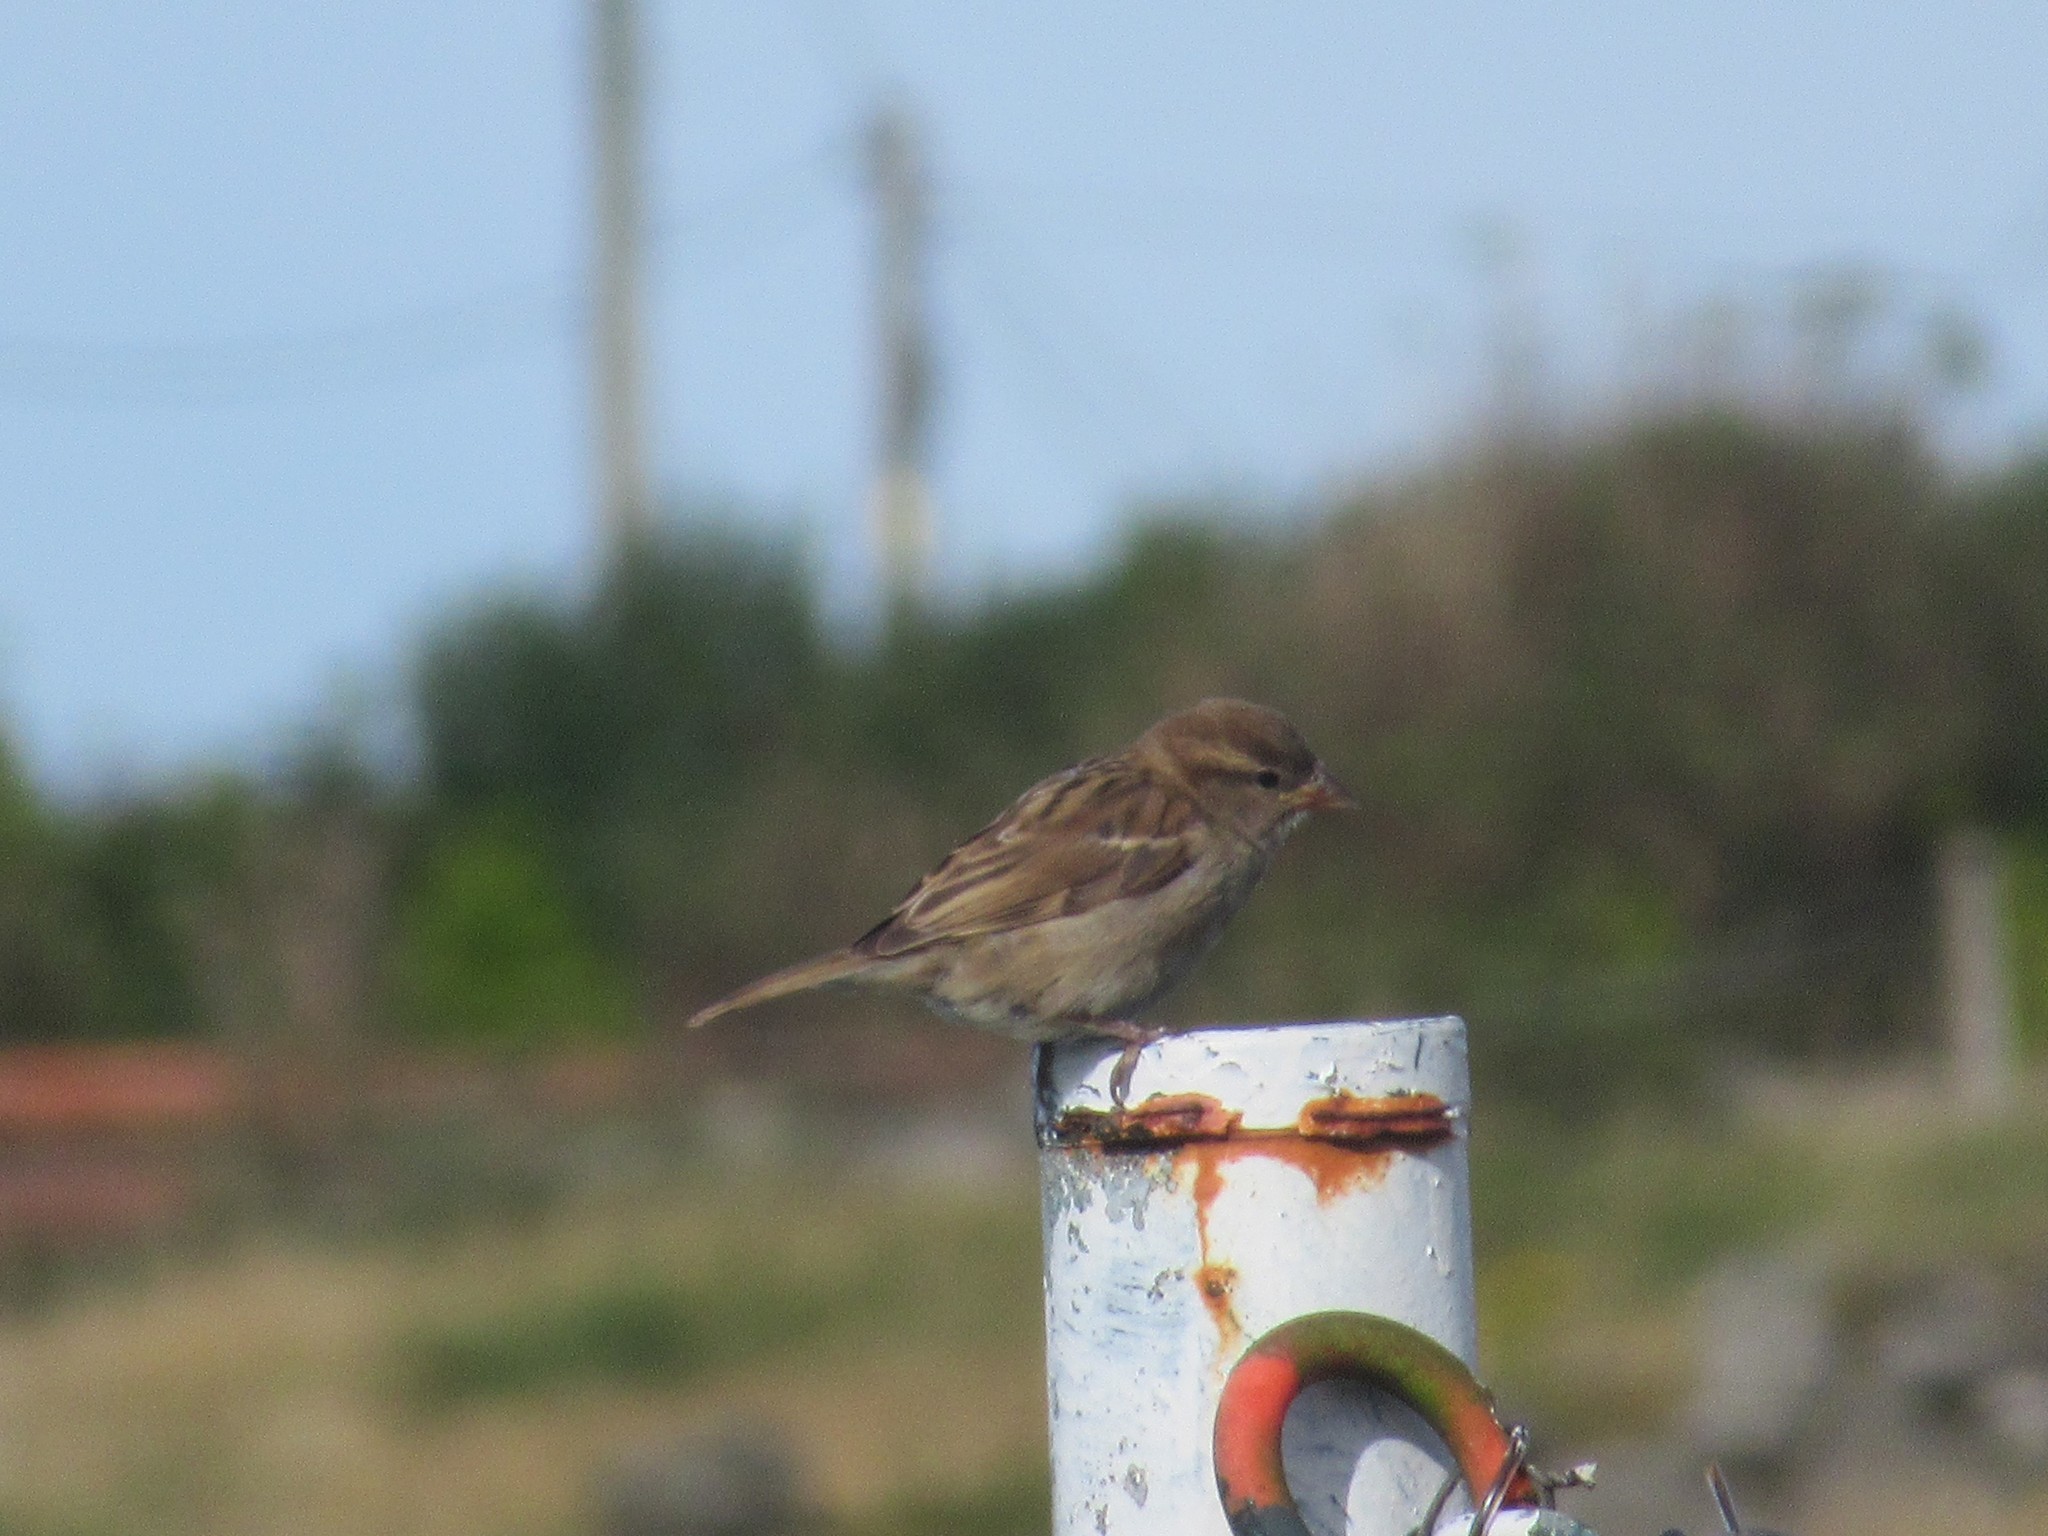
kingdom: Animalia
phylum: Chordata
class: Aves
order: Passeriformes
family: Passeridae
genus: Passer
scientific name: Passer domesticus
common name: House sparrow
